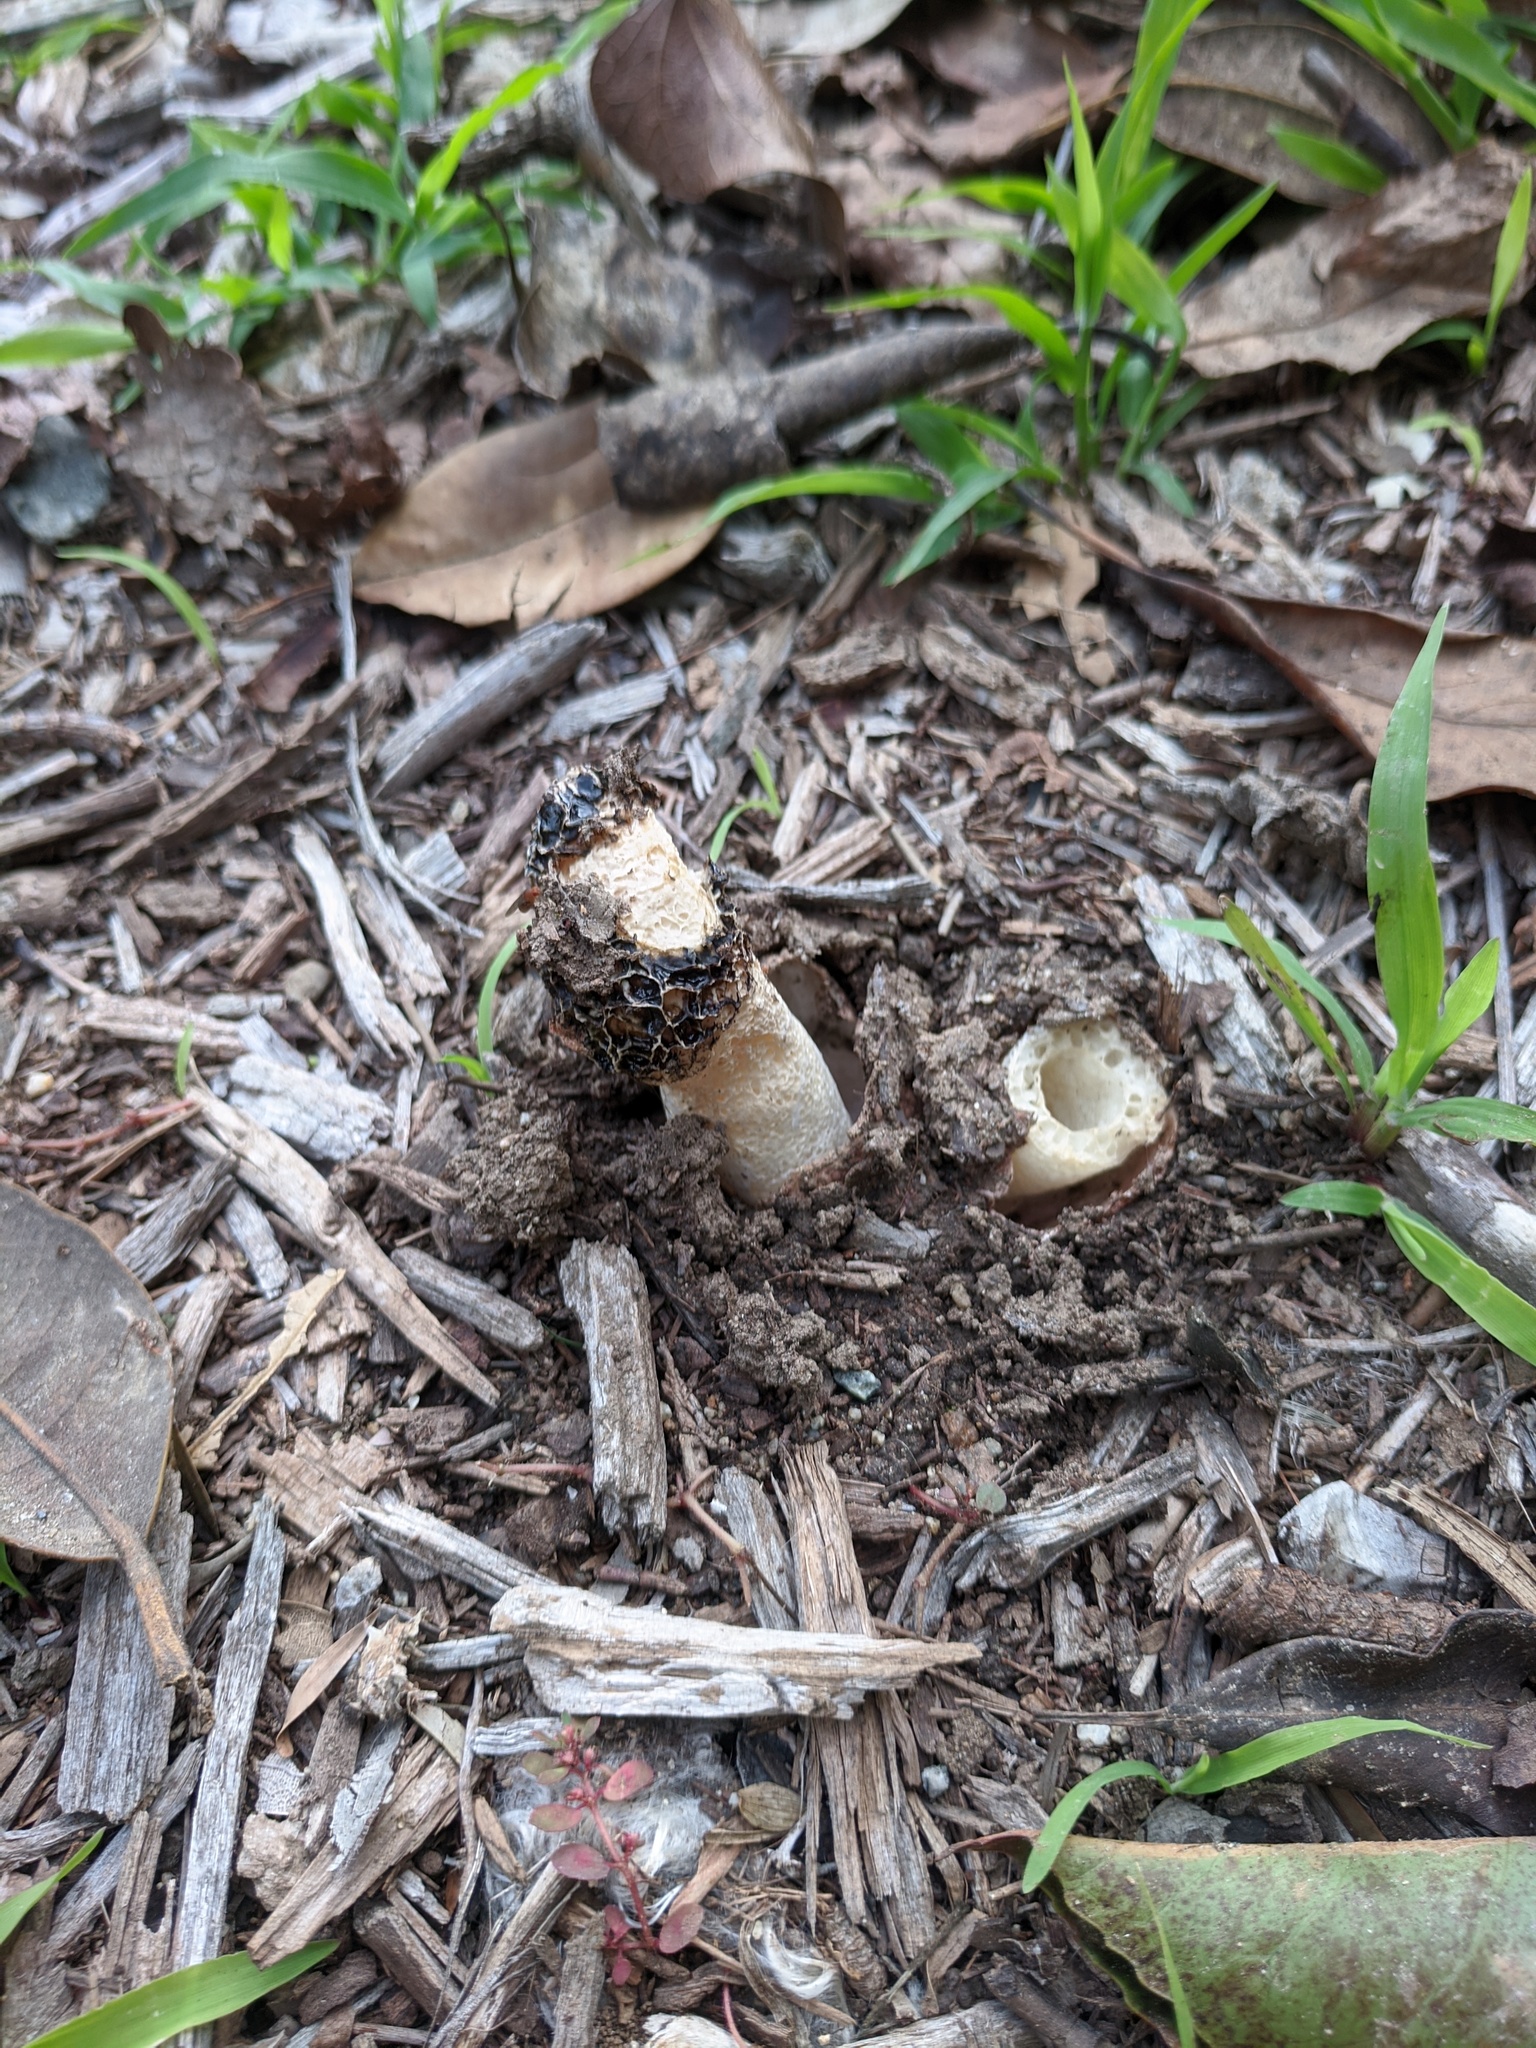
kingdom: Fungi
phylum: Basidiomycota
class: Agaricomycetes
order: Phallales
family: Phallaceae
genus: Phallus
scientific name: Phallus hadriani
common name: Sand stinkhorn
